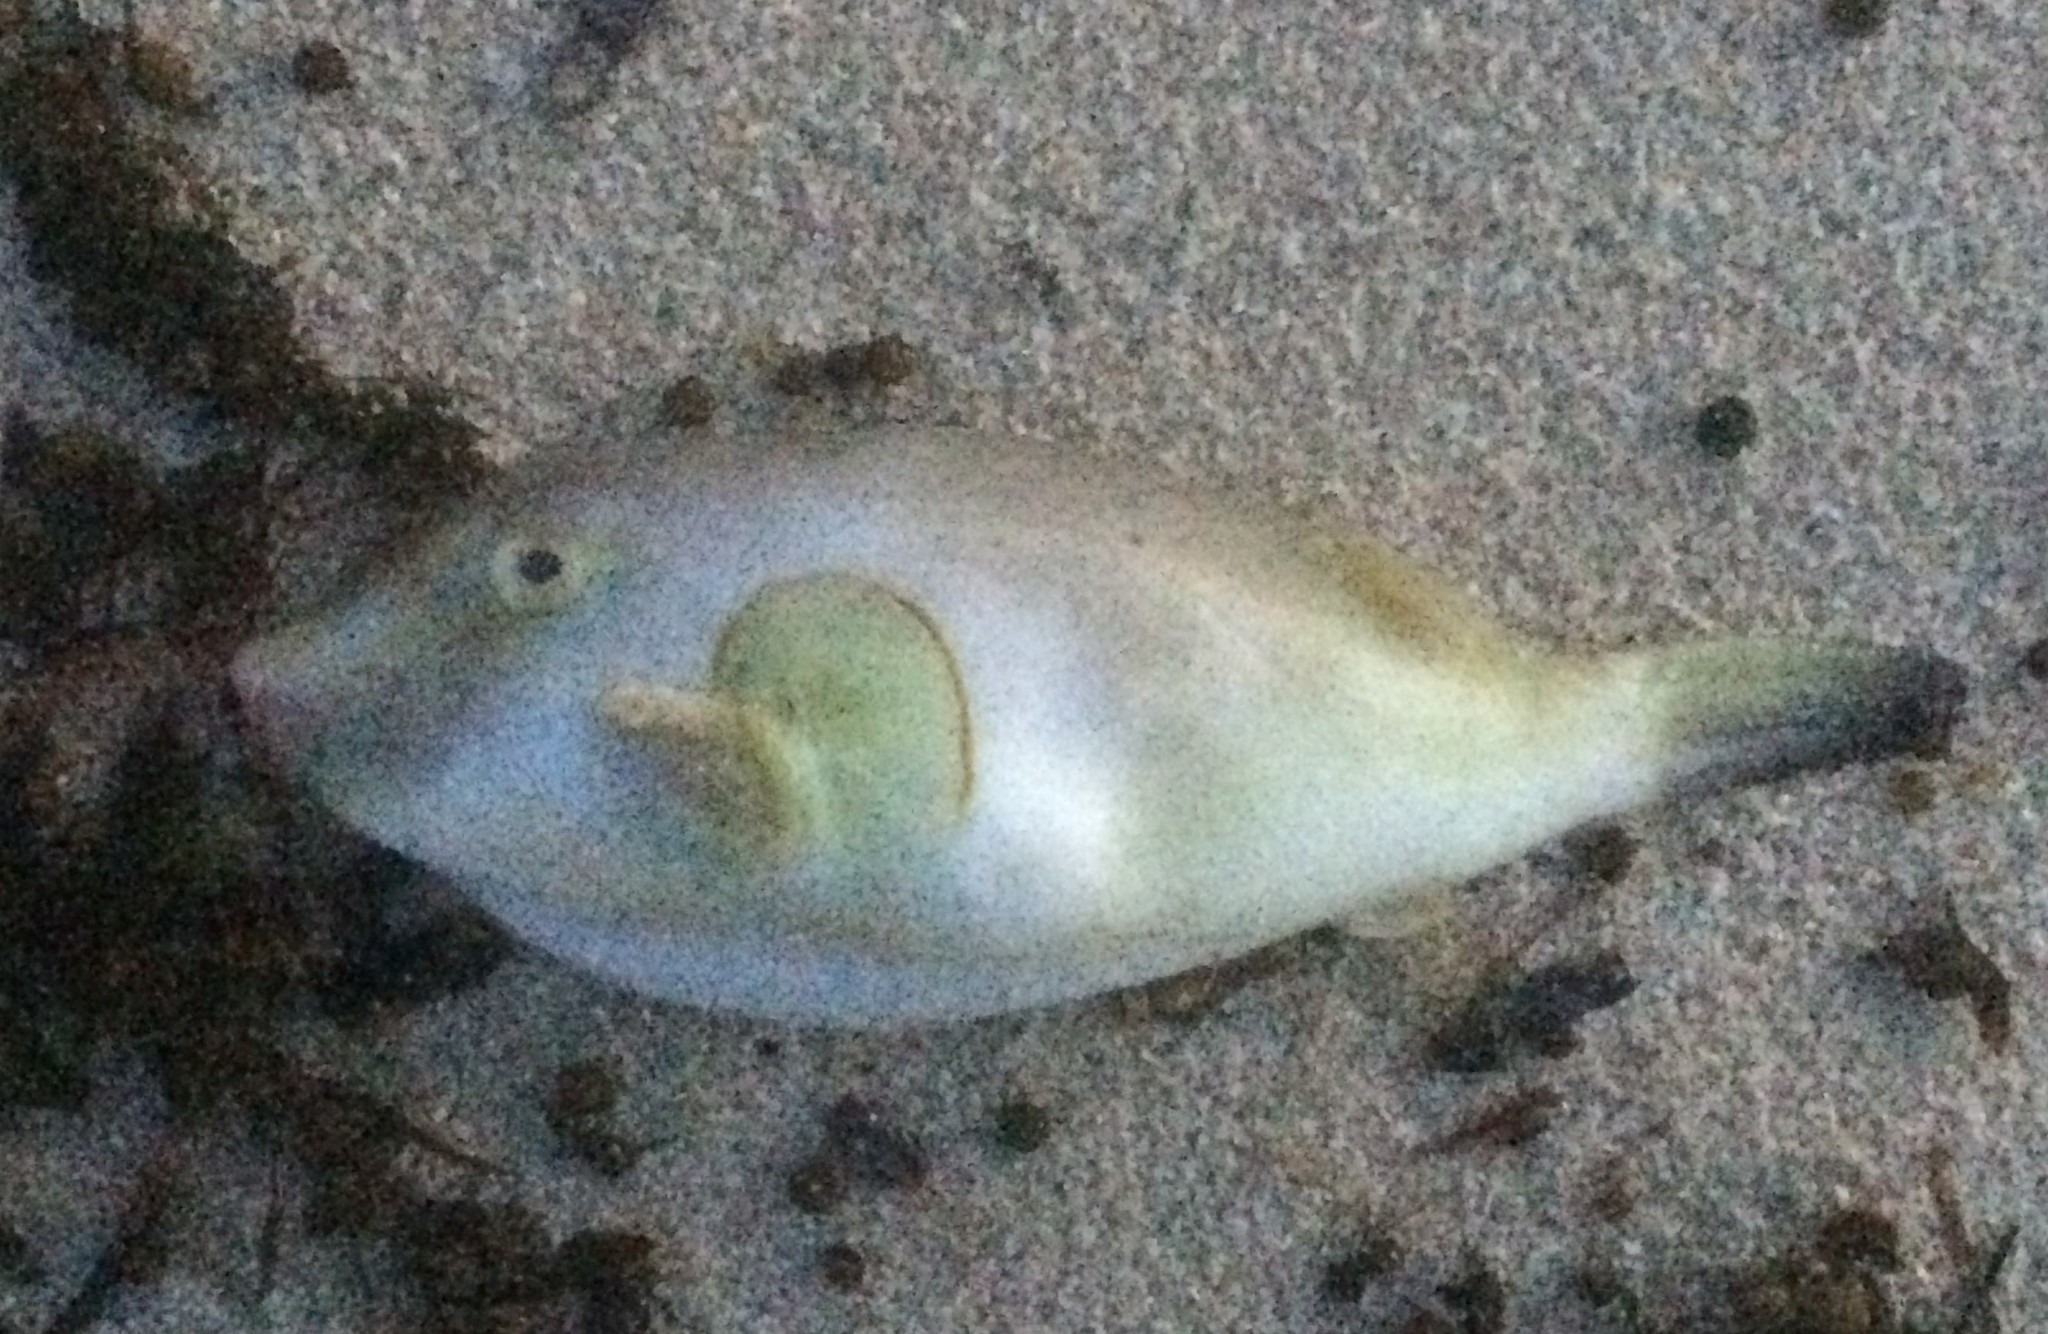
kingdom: Animalia
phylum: Chordata
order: Tetraodontiformes
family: Tetraodontidae
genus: Omegophora
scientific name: Omegophora armilla
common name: Ringed pufferfish
